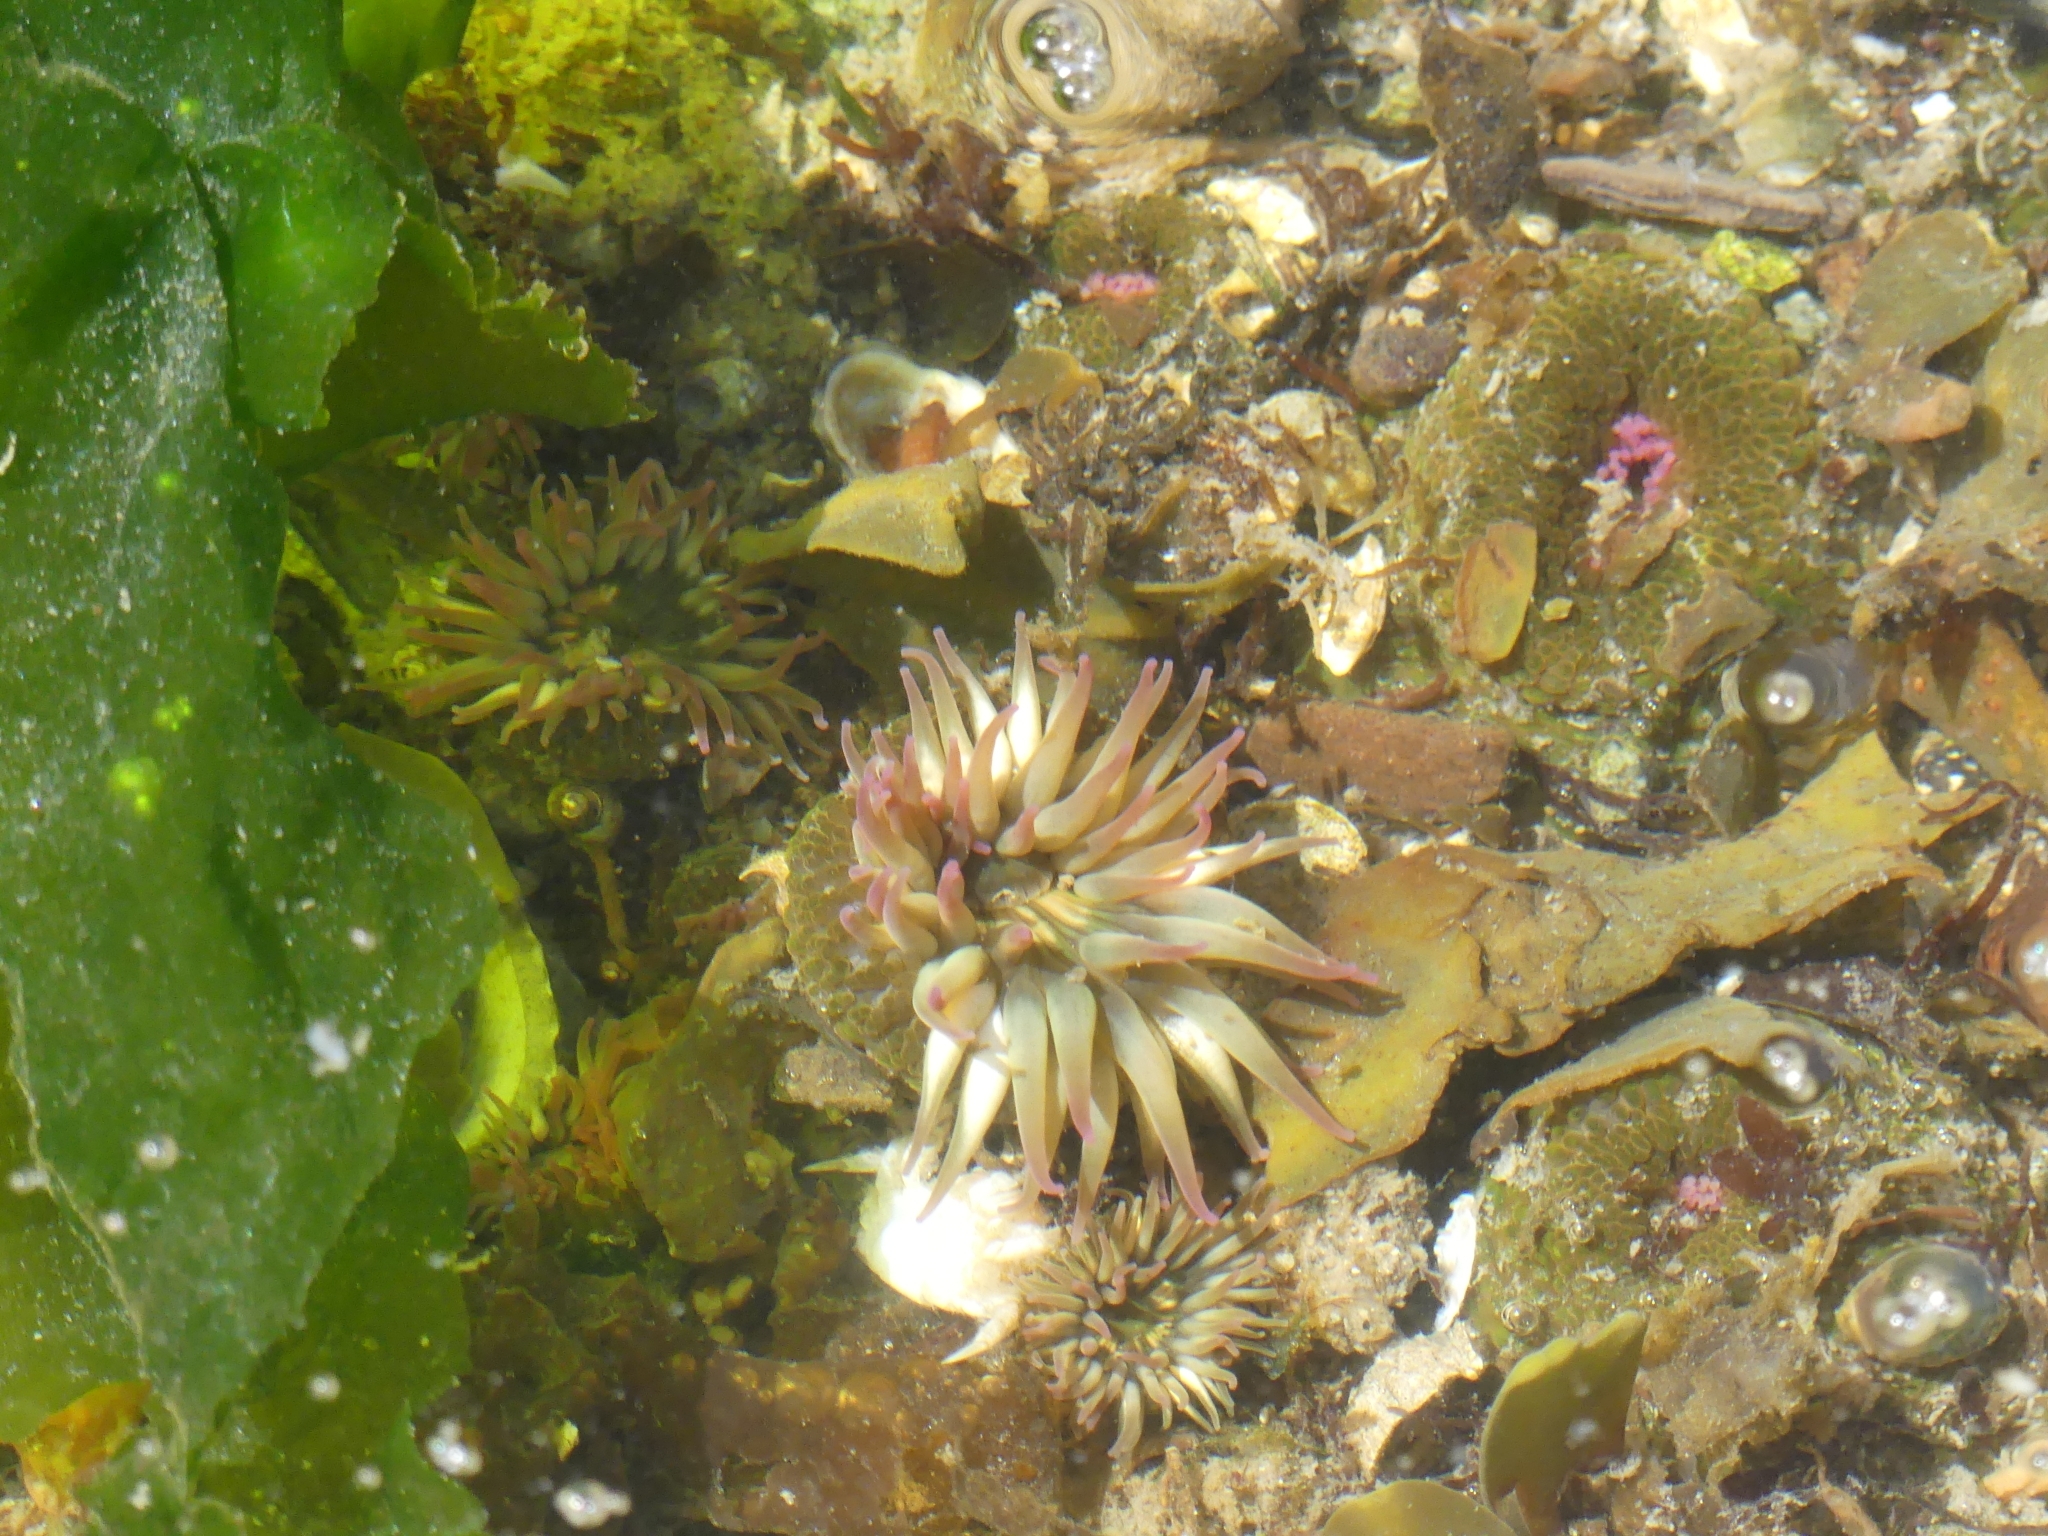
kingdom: Animalia
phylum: Cnidaria
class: Anthozoa
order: Actiniaria
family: Actiniidae
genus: Anthopleura
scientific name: Anthopleura elegantissima
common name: Clonal anemone
